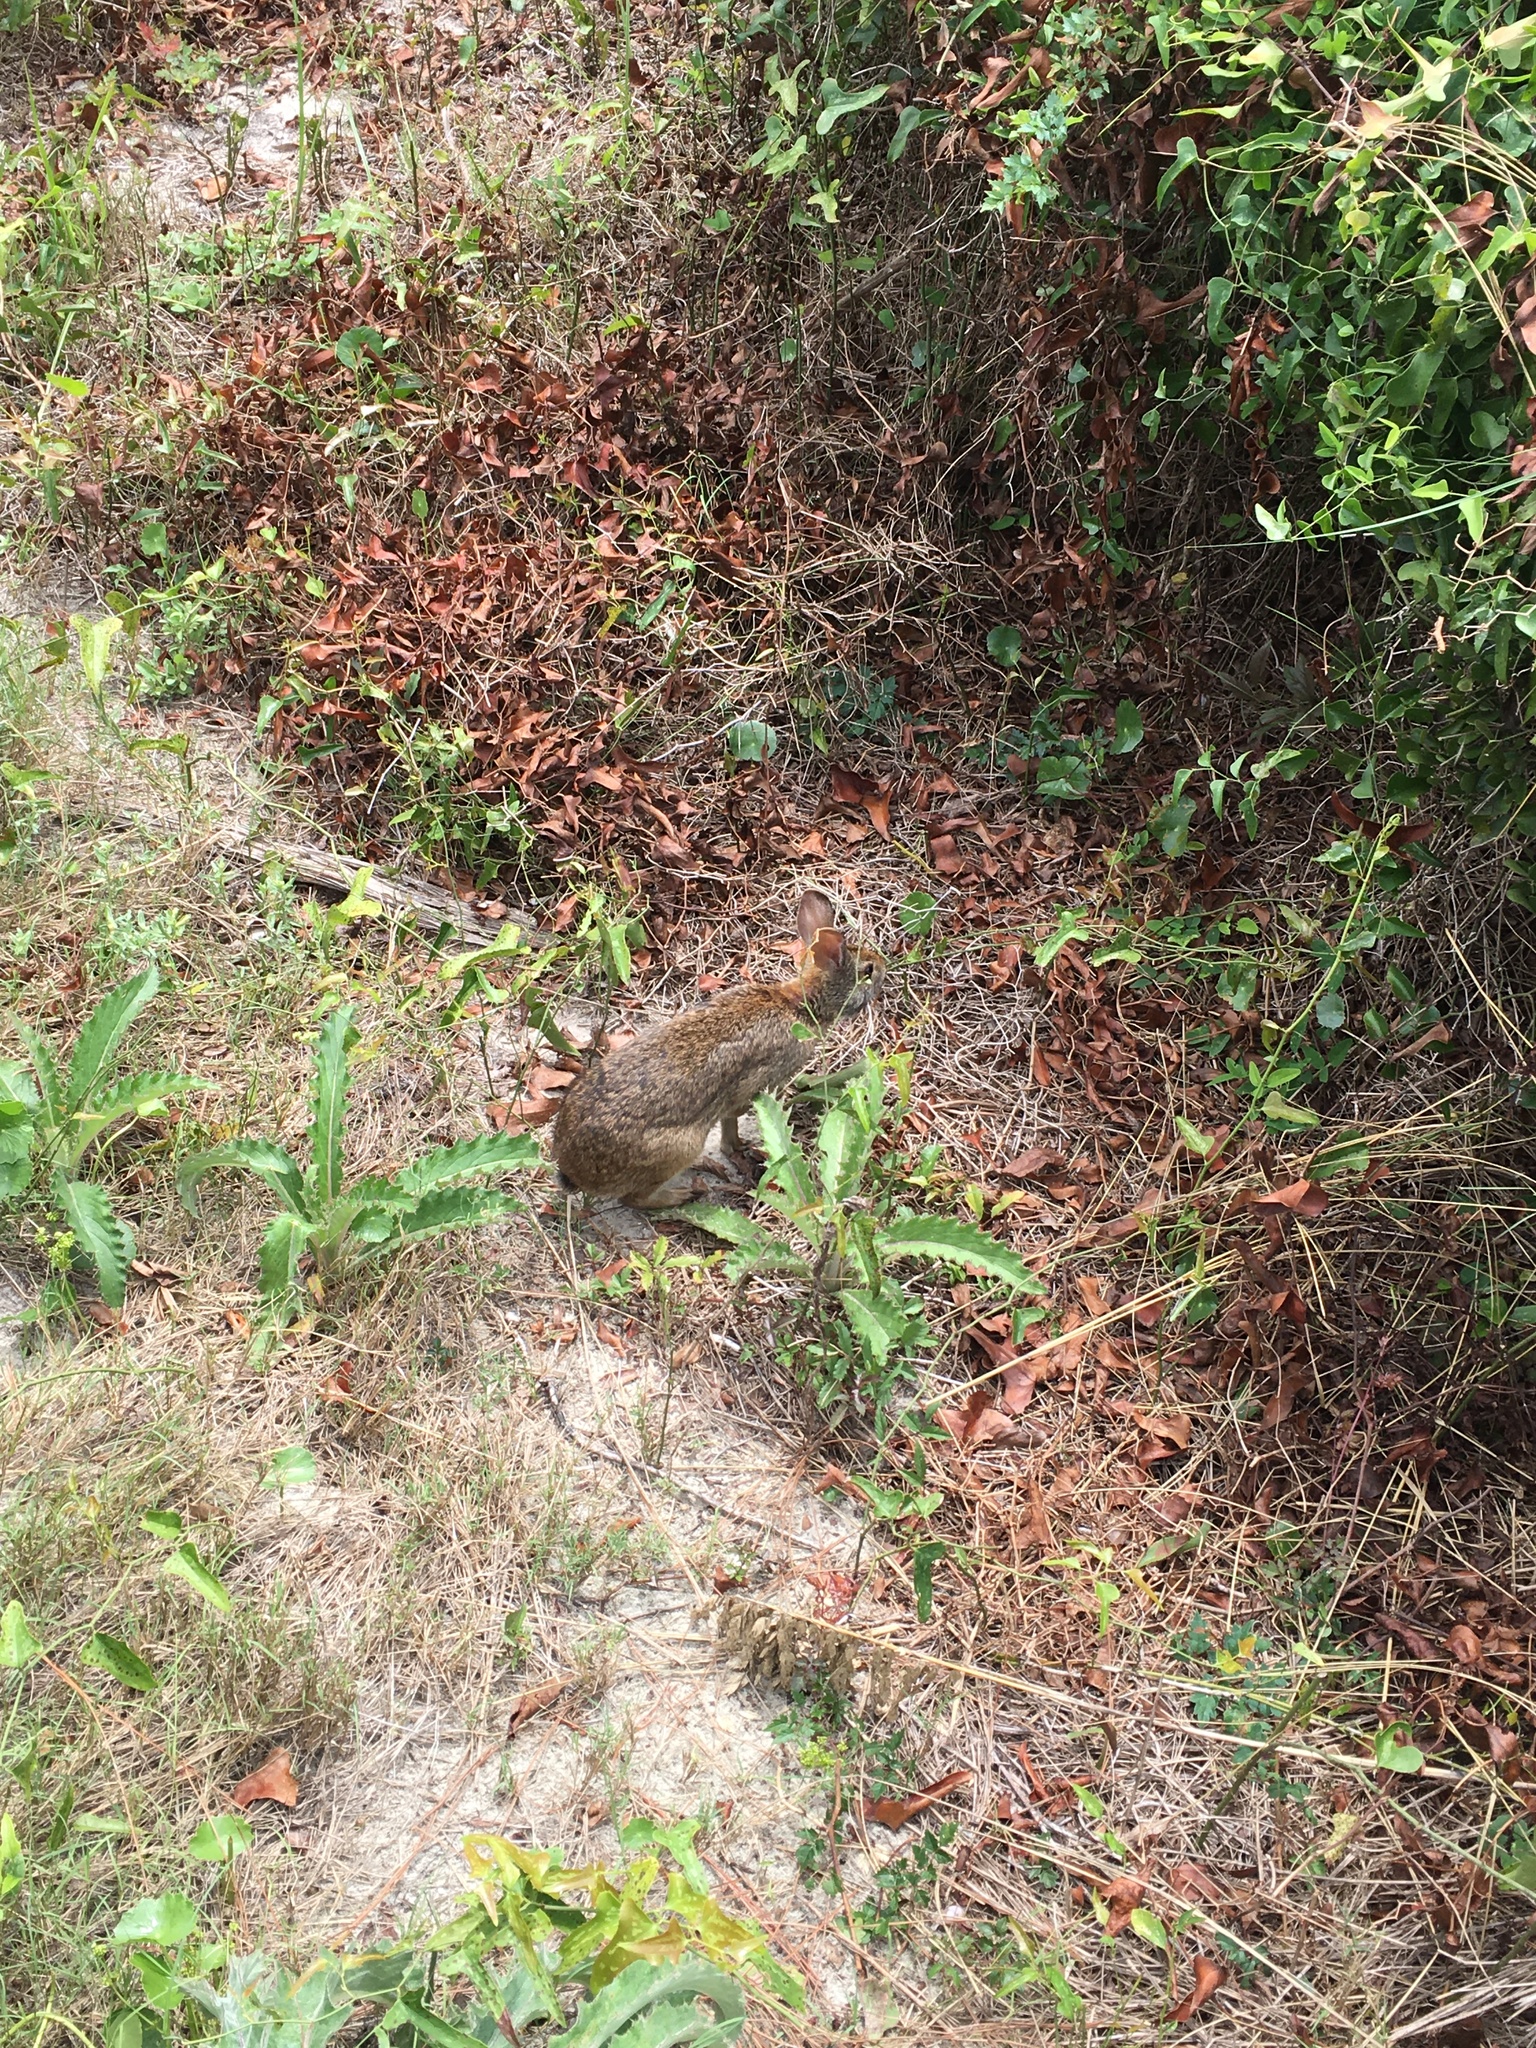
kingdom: Animalia
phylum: Chordata
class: Mammalia
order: Lagomorpha
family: Leporidae
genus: Sylvilagus
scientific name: Sylvilagus floridanus
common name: Eastern cottontail
